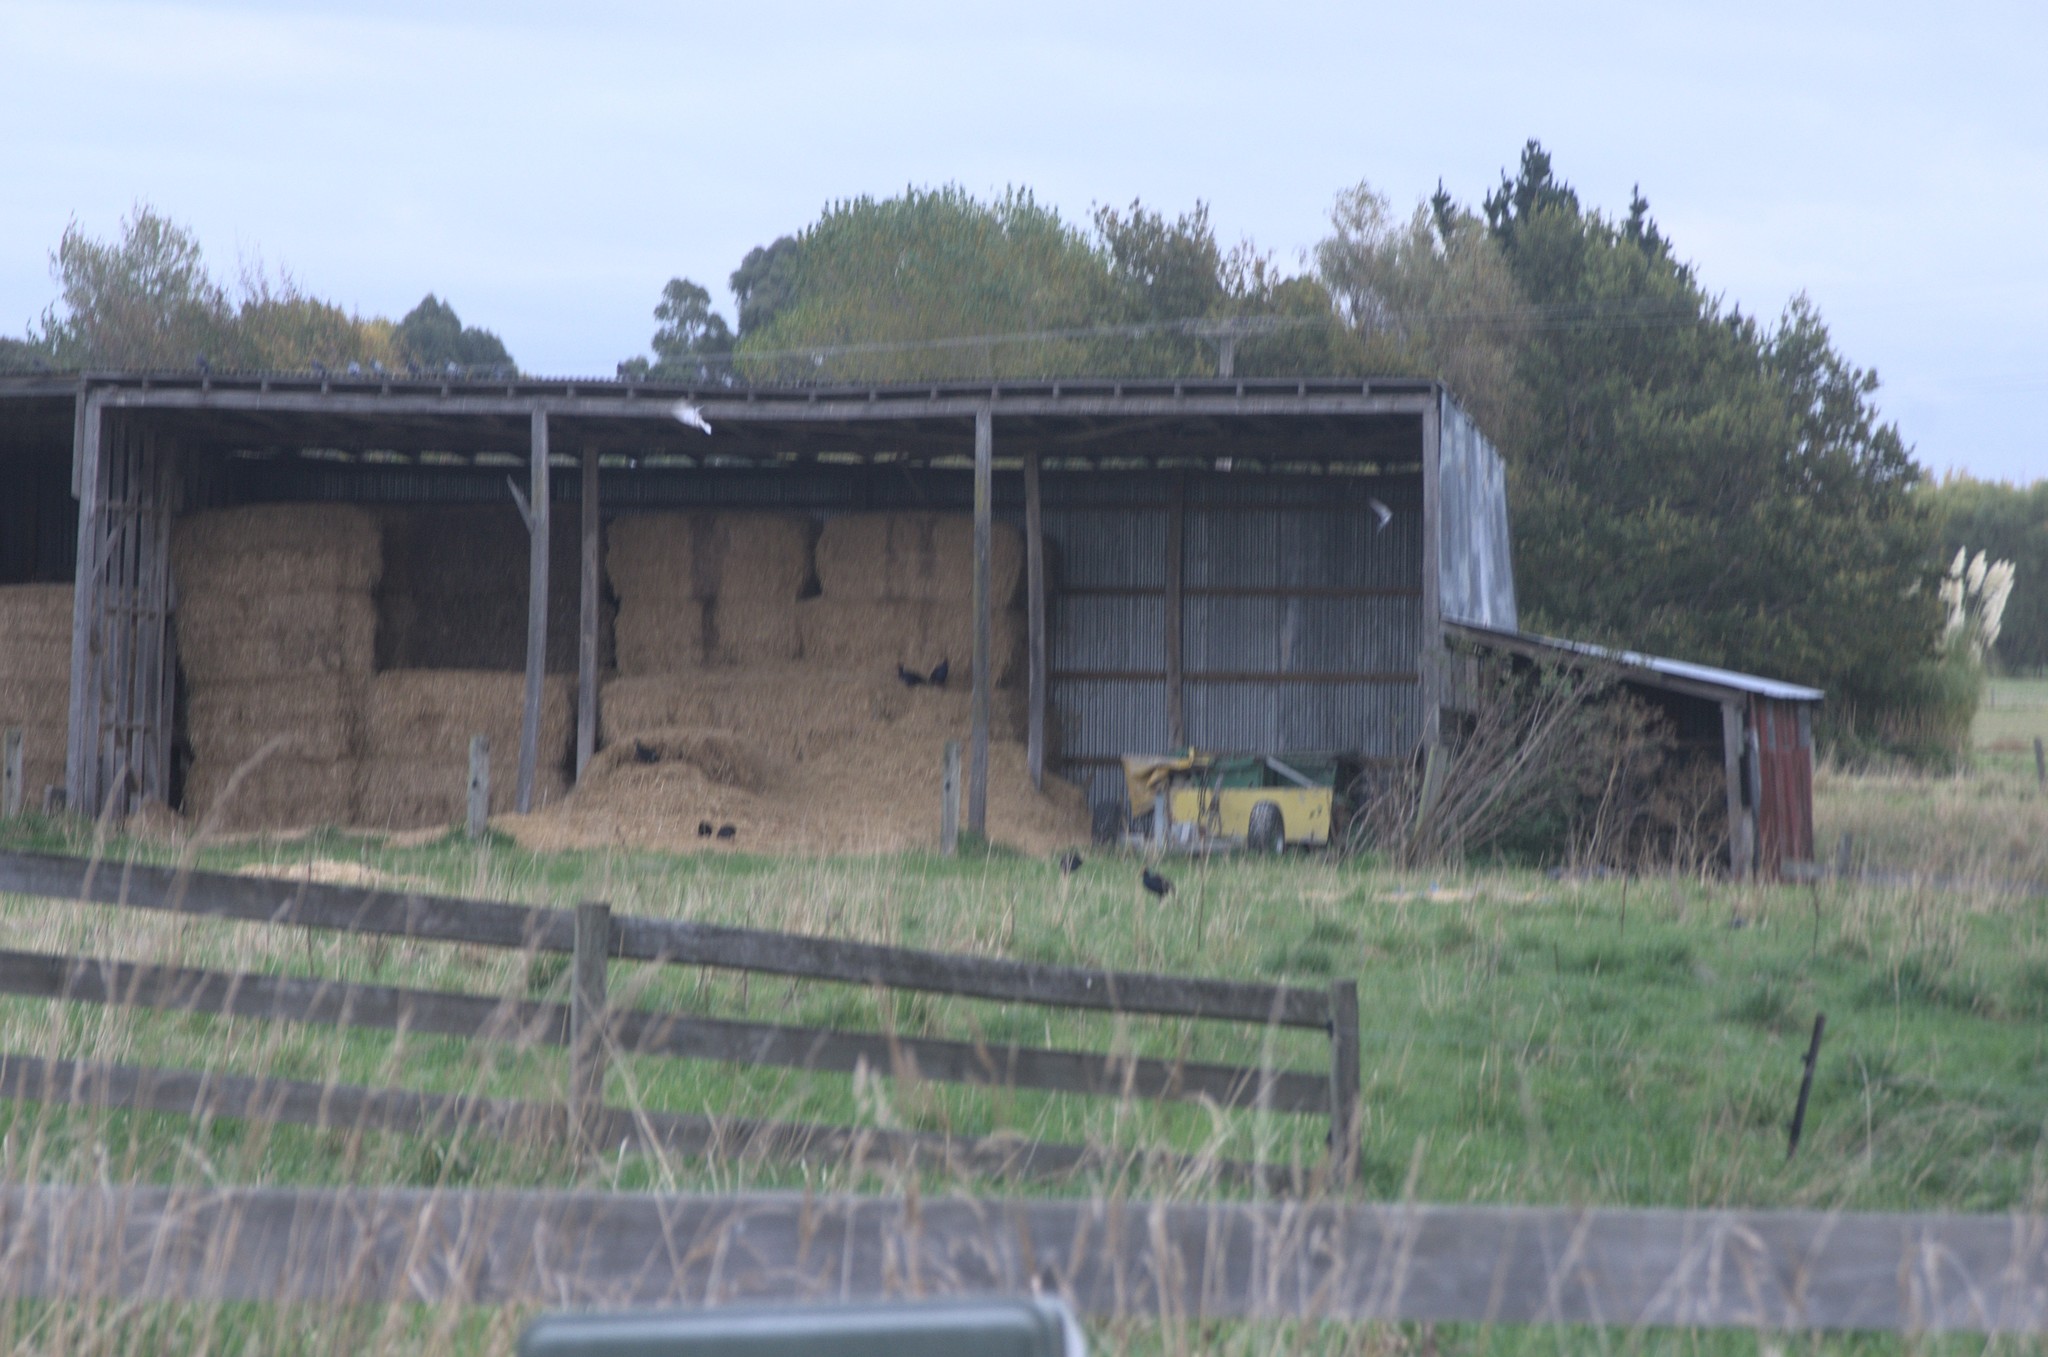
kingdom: Animalia
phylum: Chordata
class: Aves
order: Columbiformes
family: Columbidae
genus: Columba
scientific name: Columba livia
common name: Rock pigeon
